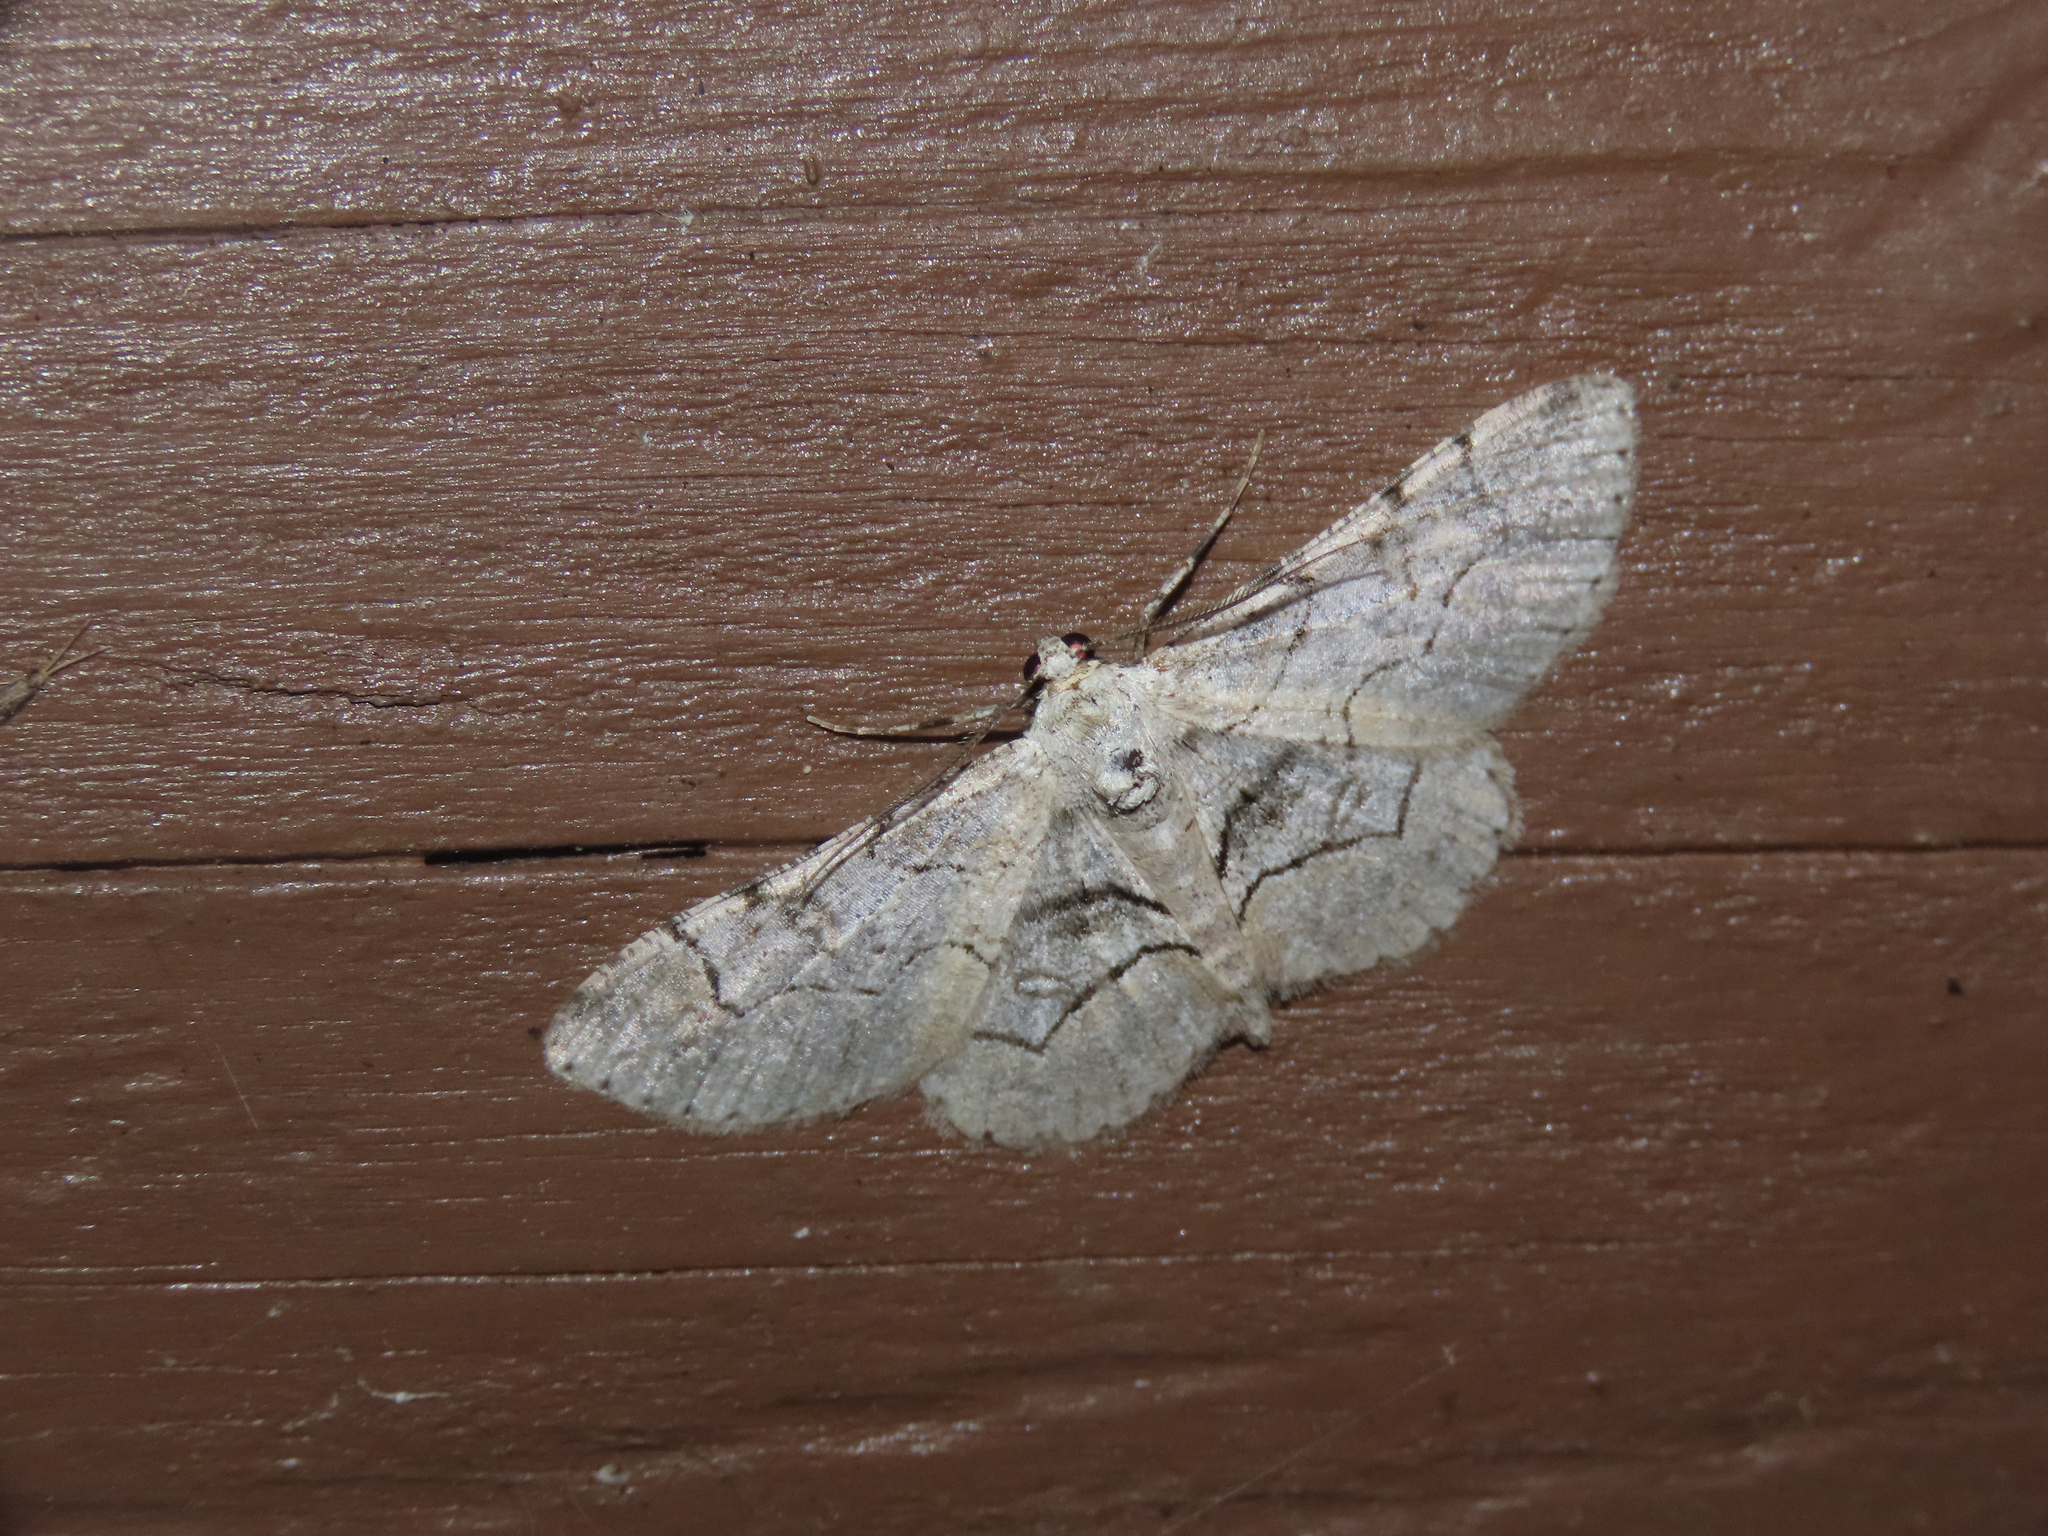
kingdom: Animalia
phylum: Arthropoda
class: Insecta
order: Lepidoptera
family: Geometridae
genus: Iridopsis
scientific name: Iridopsis larvaria
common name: Bent-line gray
